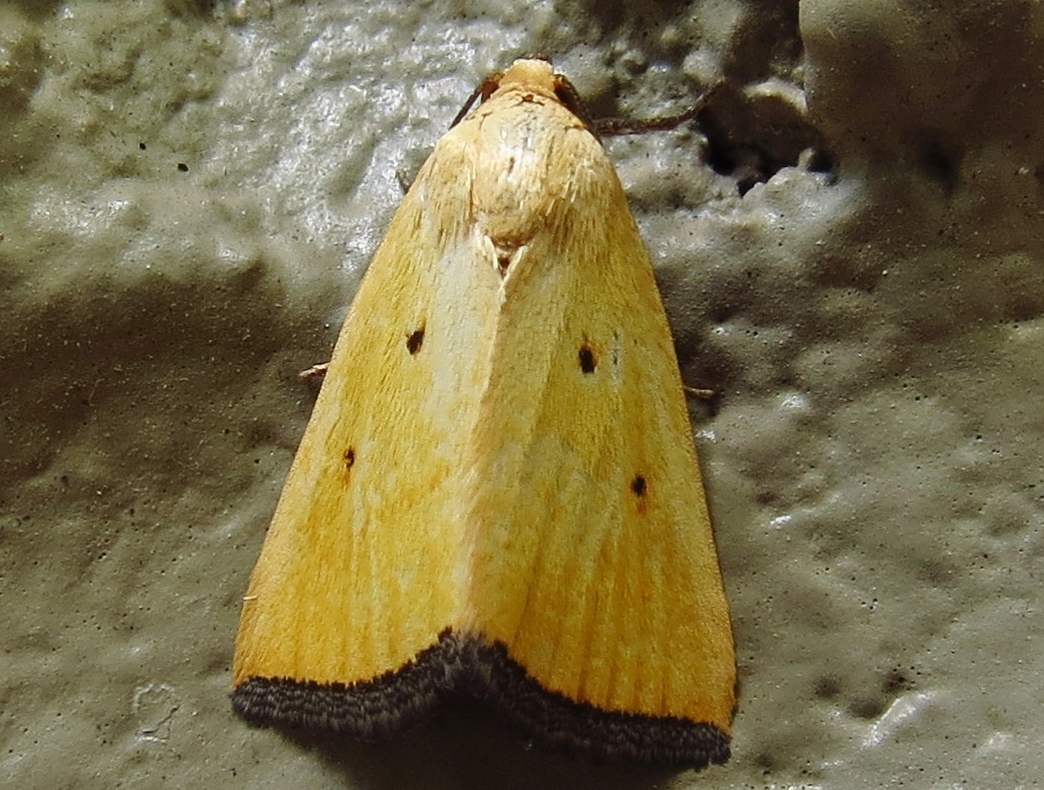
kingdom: Animalia
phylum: Arthropoda
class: Insecta
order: Lepidoptera
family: Noctuidae
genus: Marimatha
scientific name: Marimatha nigrofimbria
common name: Black-bordered lemon moth
